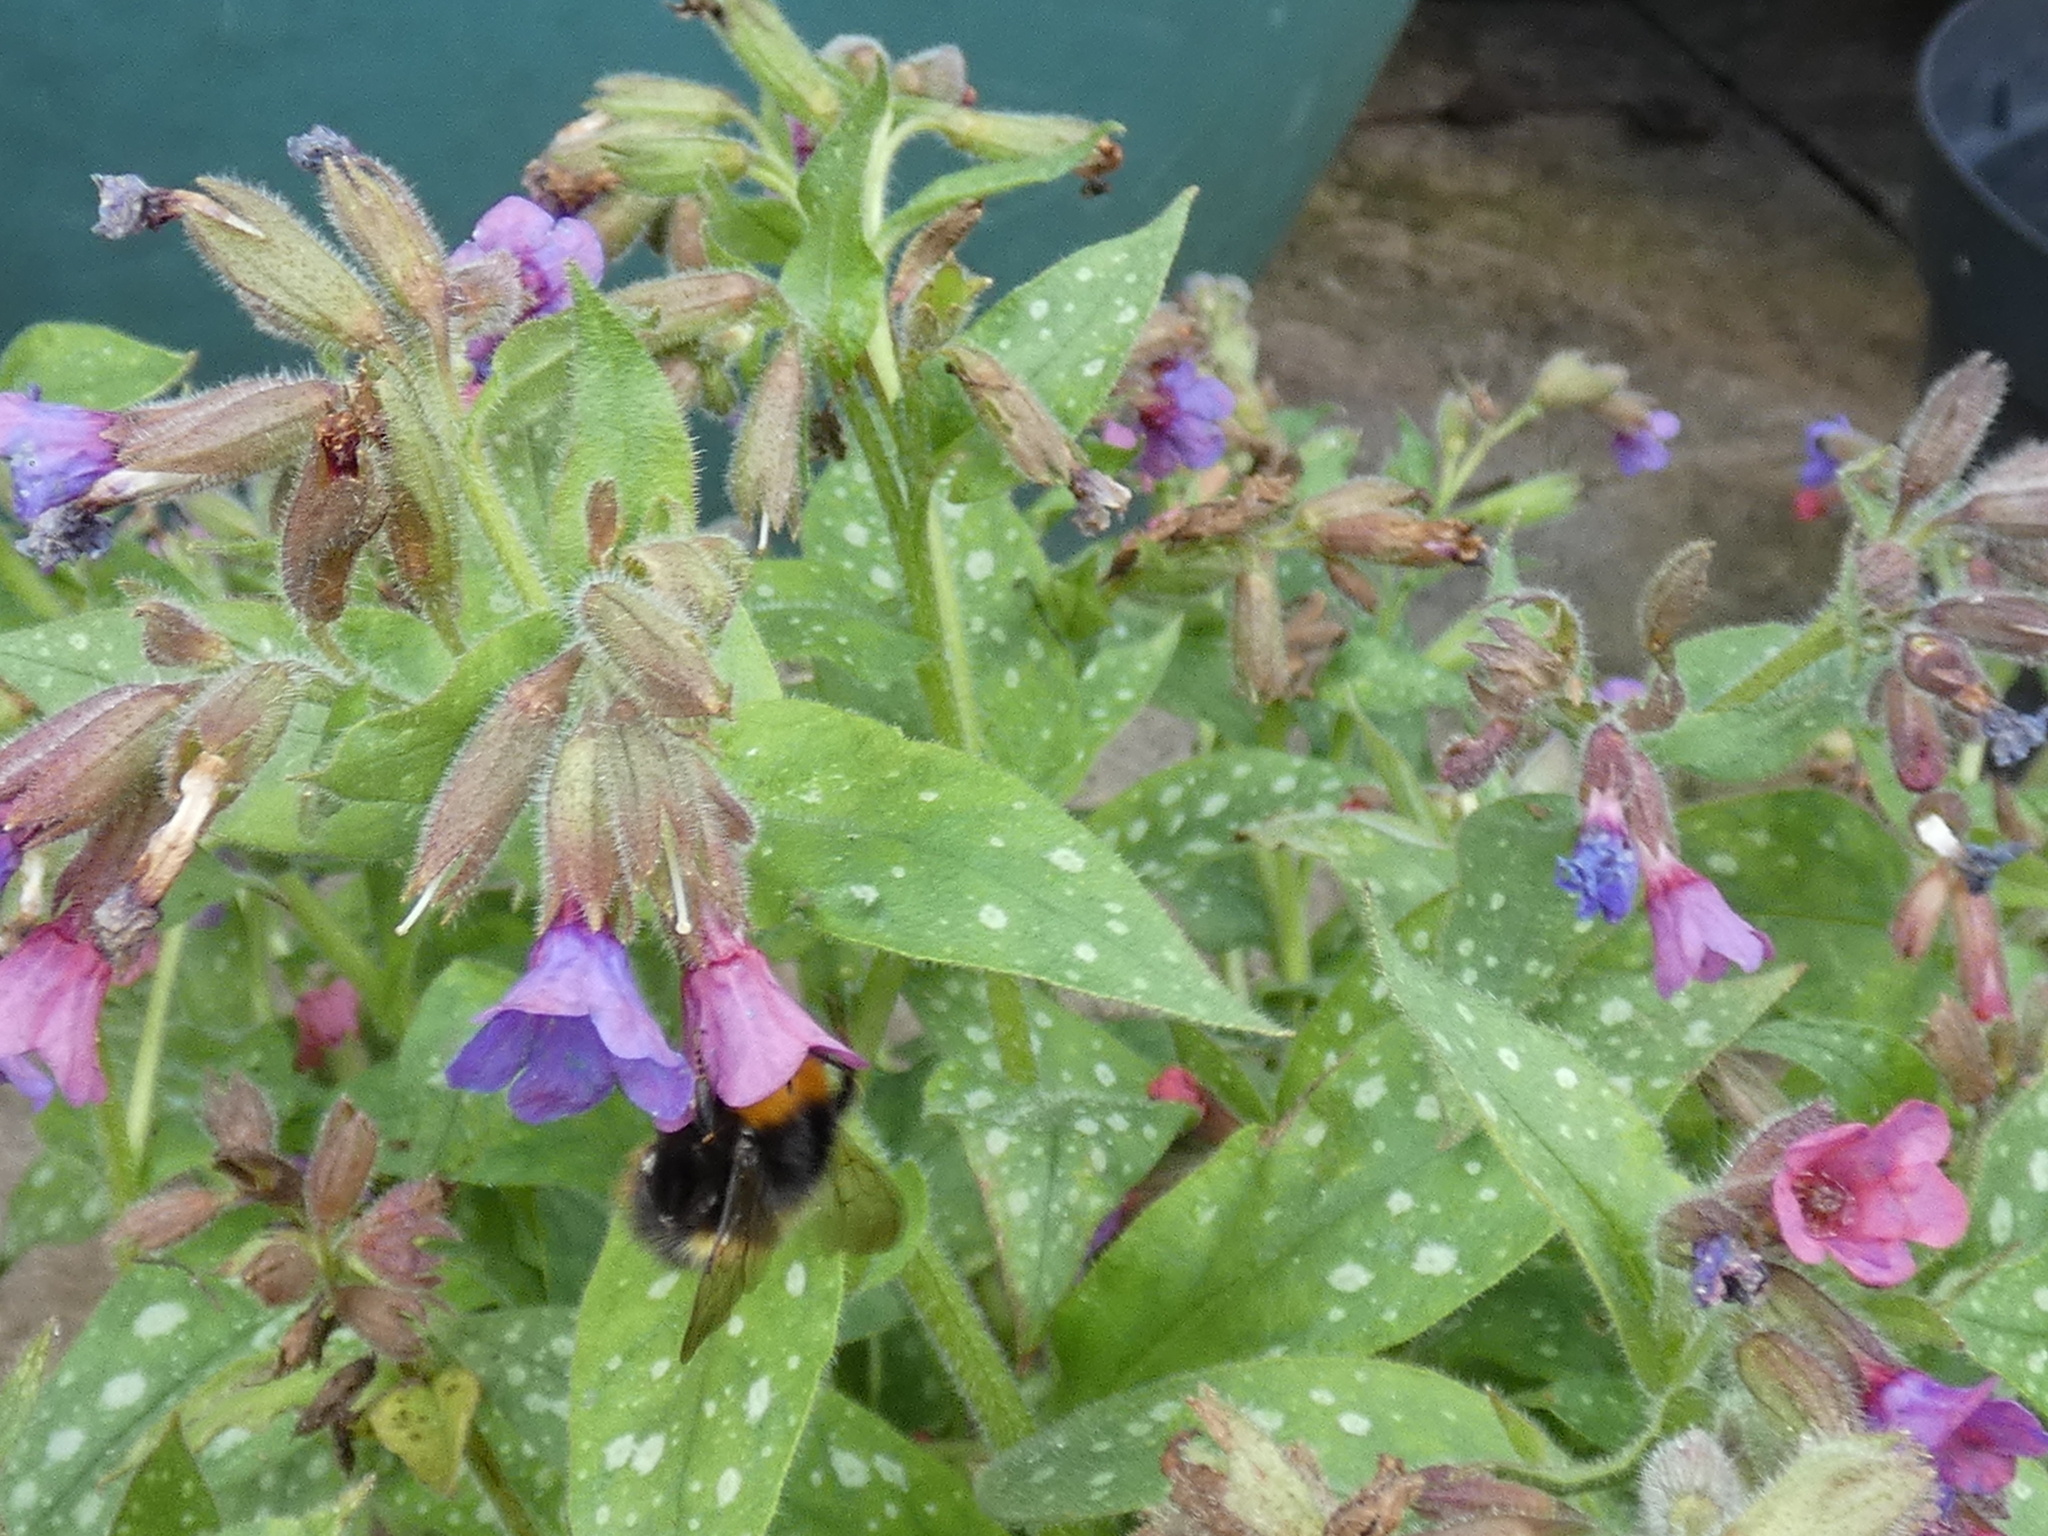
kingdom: Animalia
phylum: Arthropoda
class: Insecta
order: Hymenoptera
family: Apidae
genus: Bombus
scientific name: Bombus pratorum
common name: Early humble-bee
